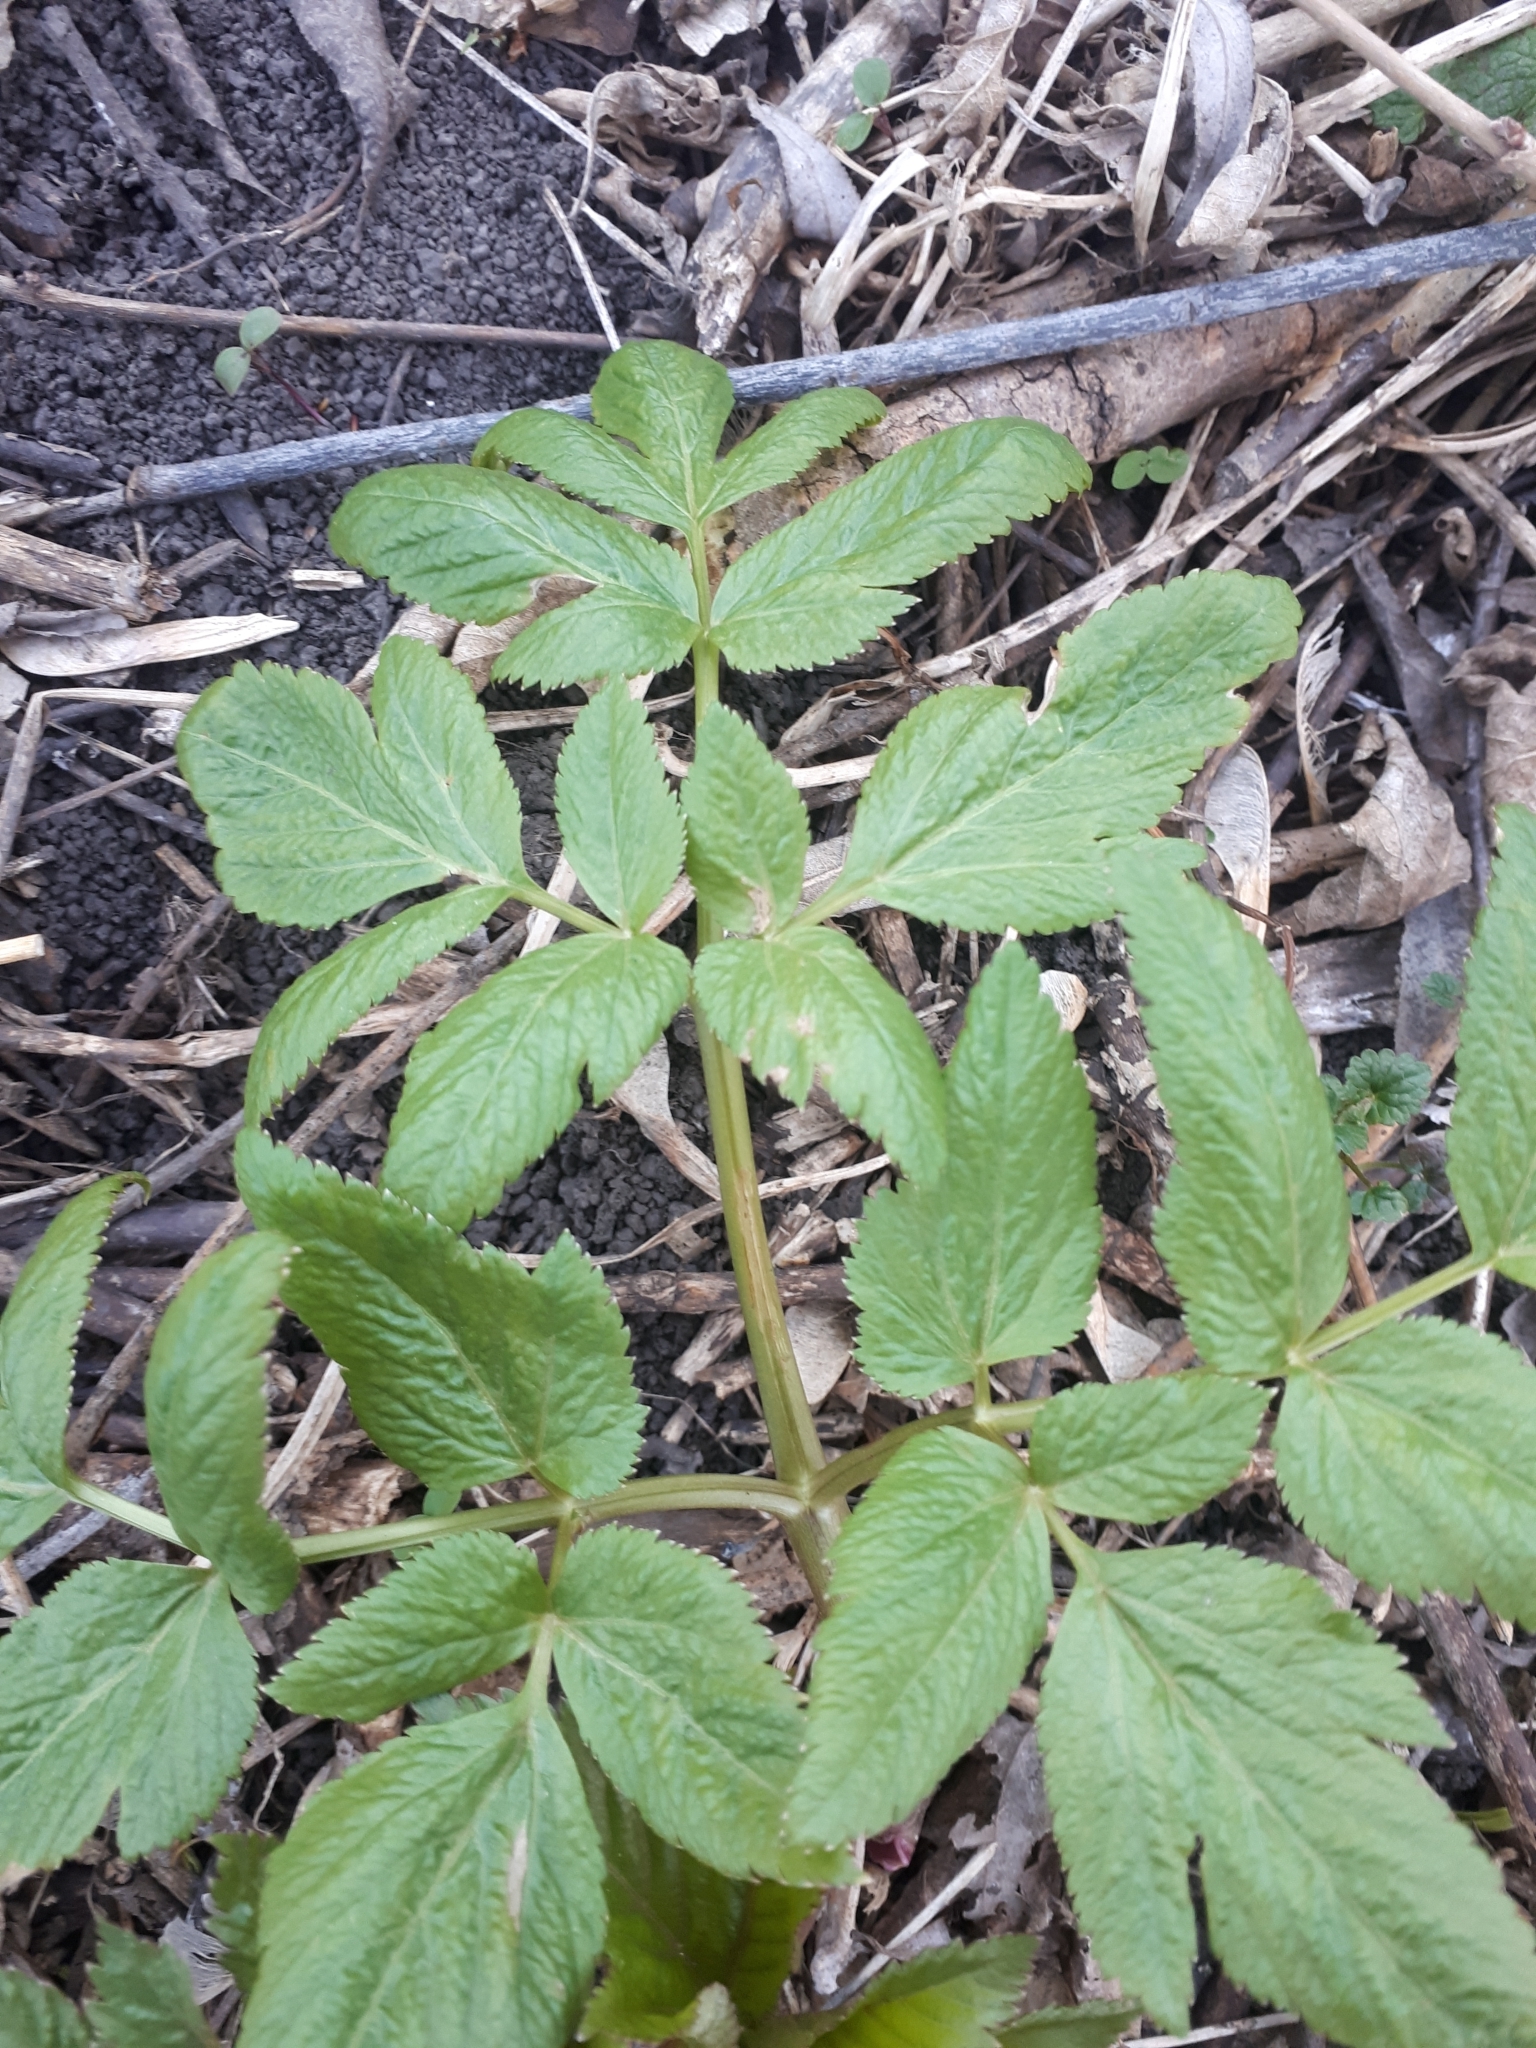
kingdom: Plantae
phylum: Tracheophyta
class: Magnoliopsida
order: Apiales
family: Apiaceae
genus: Angelica
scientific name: Angelica archangelica
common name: Garden angelica
